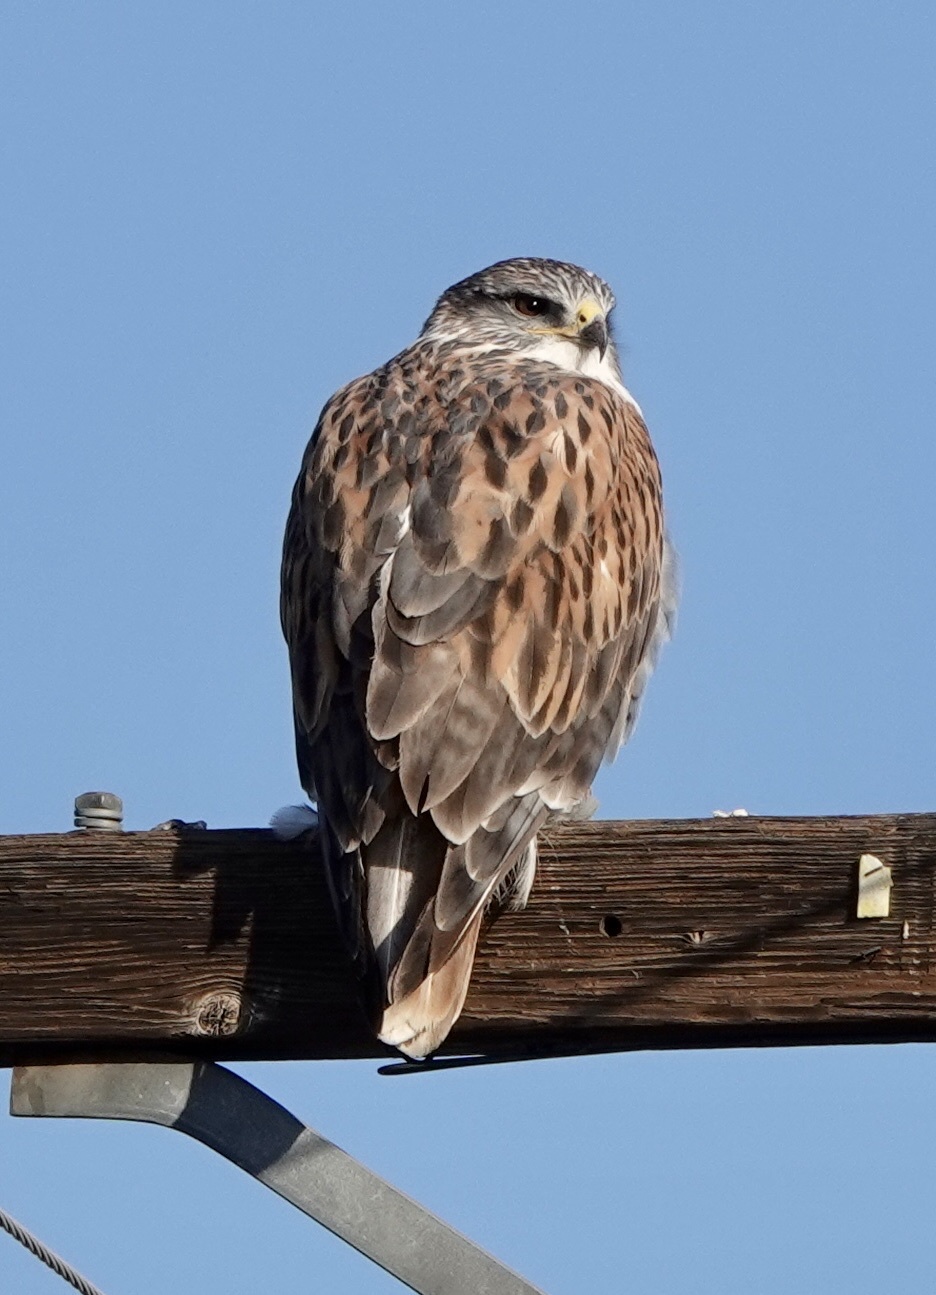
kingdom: Animalia
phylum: Chordata
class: Aves
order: Accipitriformes
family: Accipitridae
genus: Buteo
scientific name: Buteo regalis
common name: Ferruginous hawk
